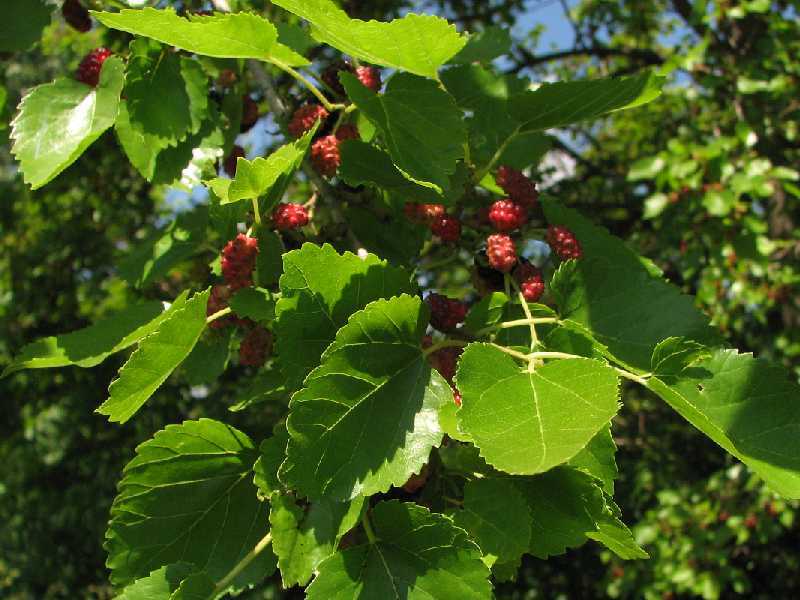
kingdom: Plantae
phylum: Tracheophyta
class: Magnoliopsida
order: Rosales
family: Moraceae
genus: Morus
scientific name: Morus alba
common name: White mulberry
